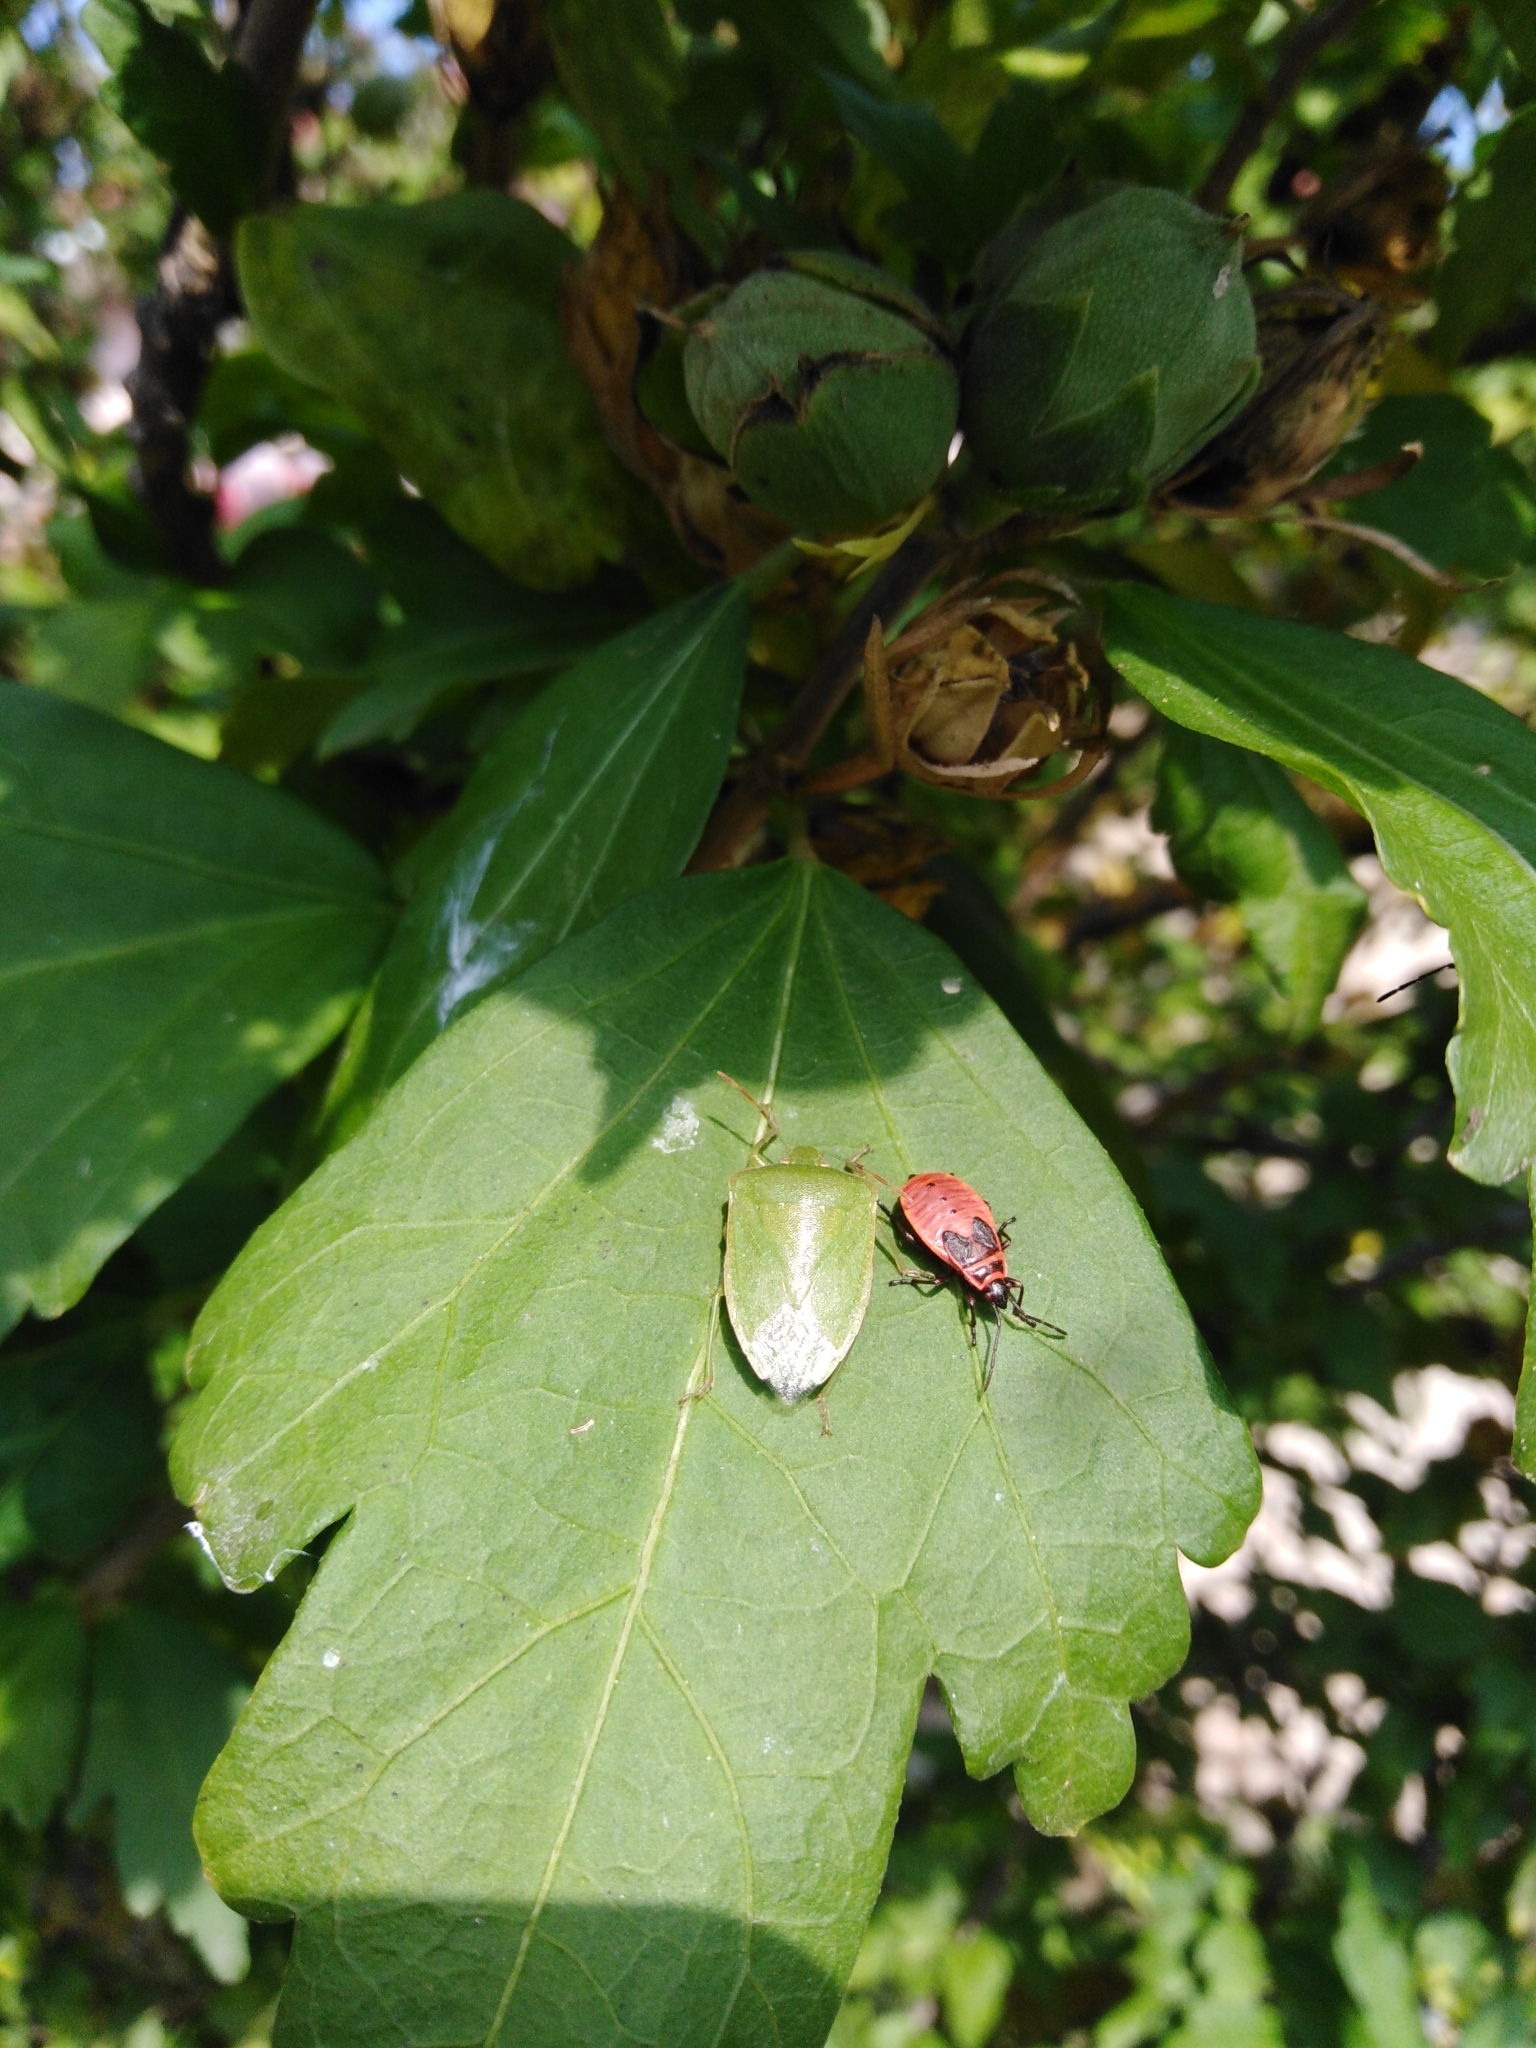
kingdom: Animalia
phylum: Arthropoda
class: Insecta
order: Hemiptera
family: Pentatomidae
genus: Nezara
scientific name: Nezara viridula
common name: Southern green stink bug
